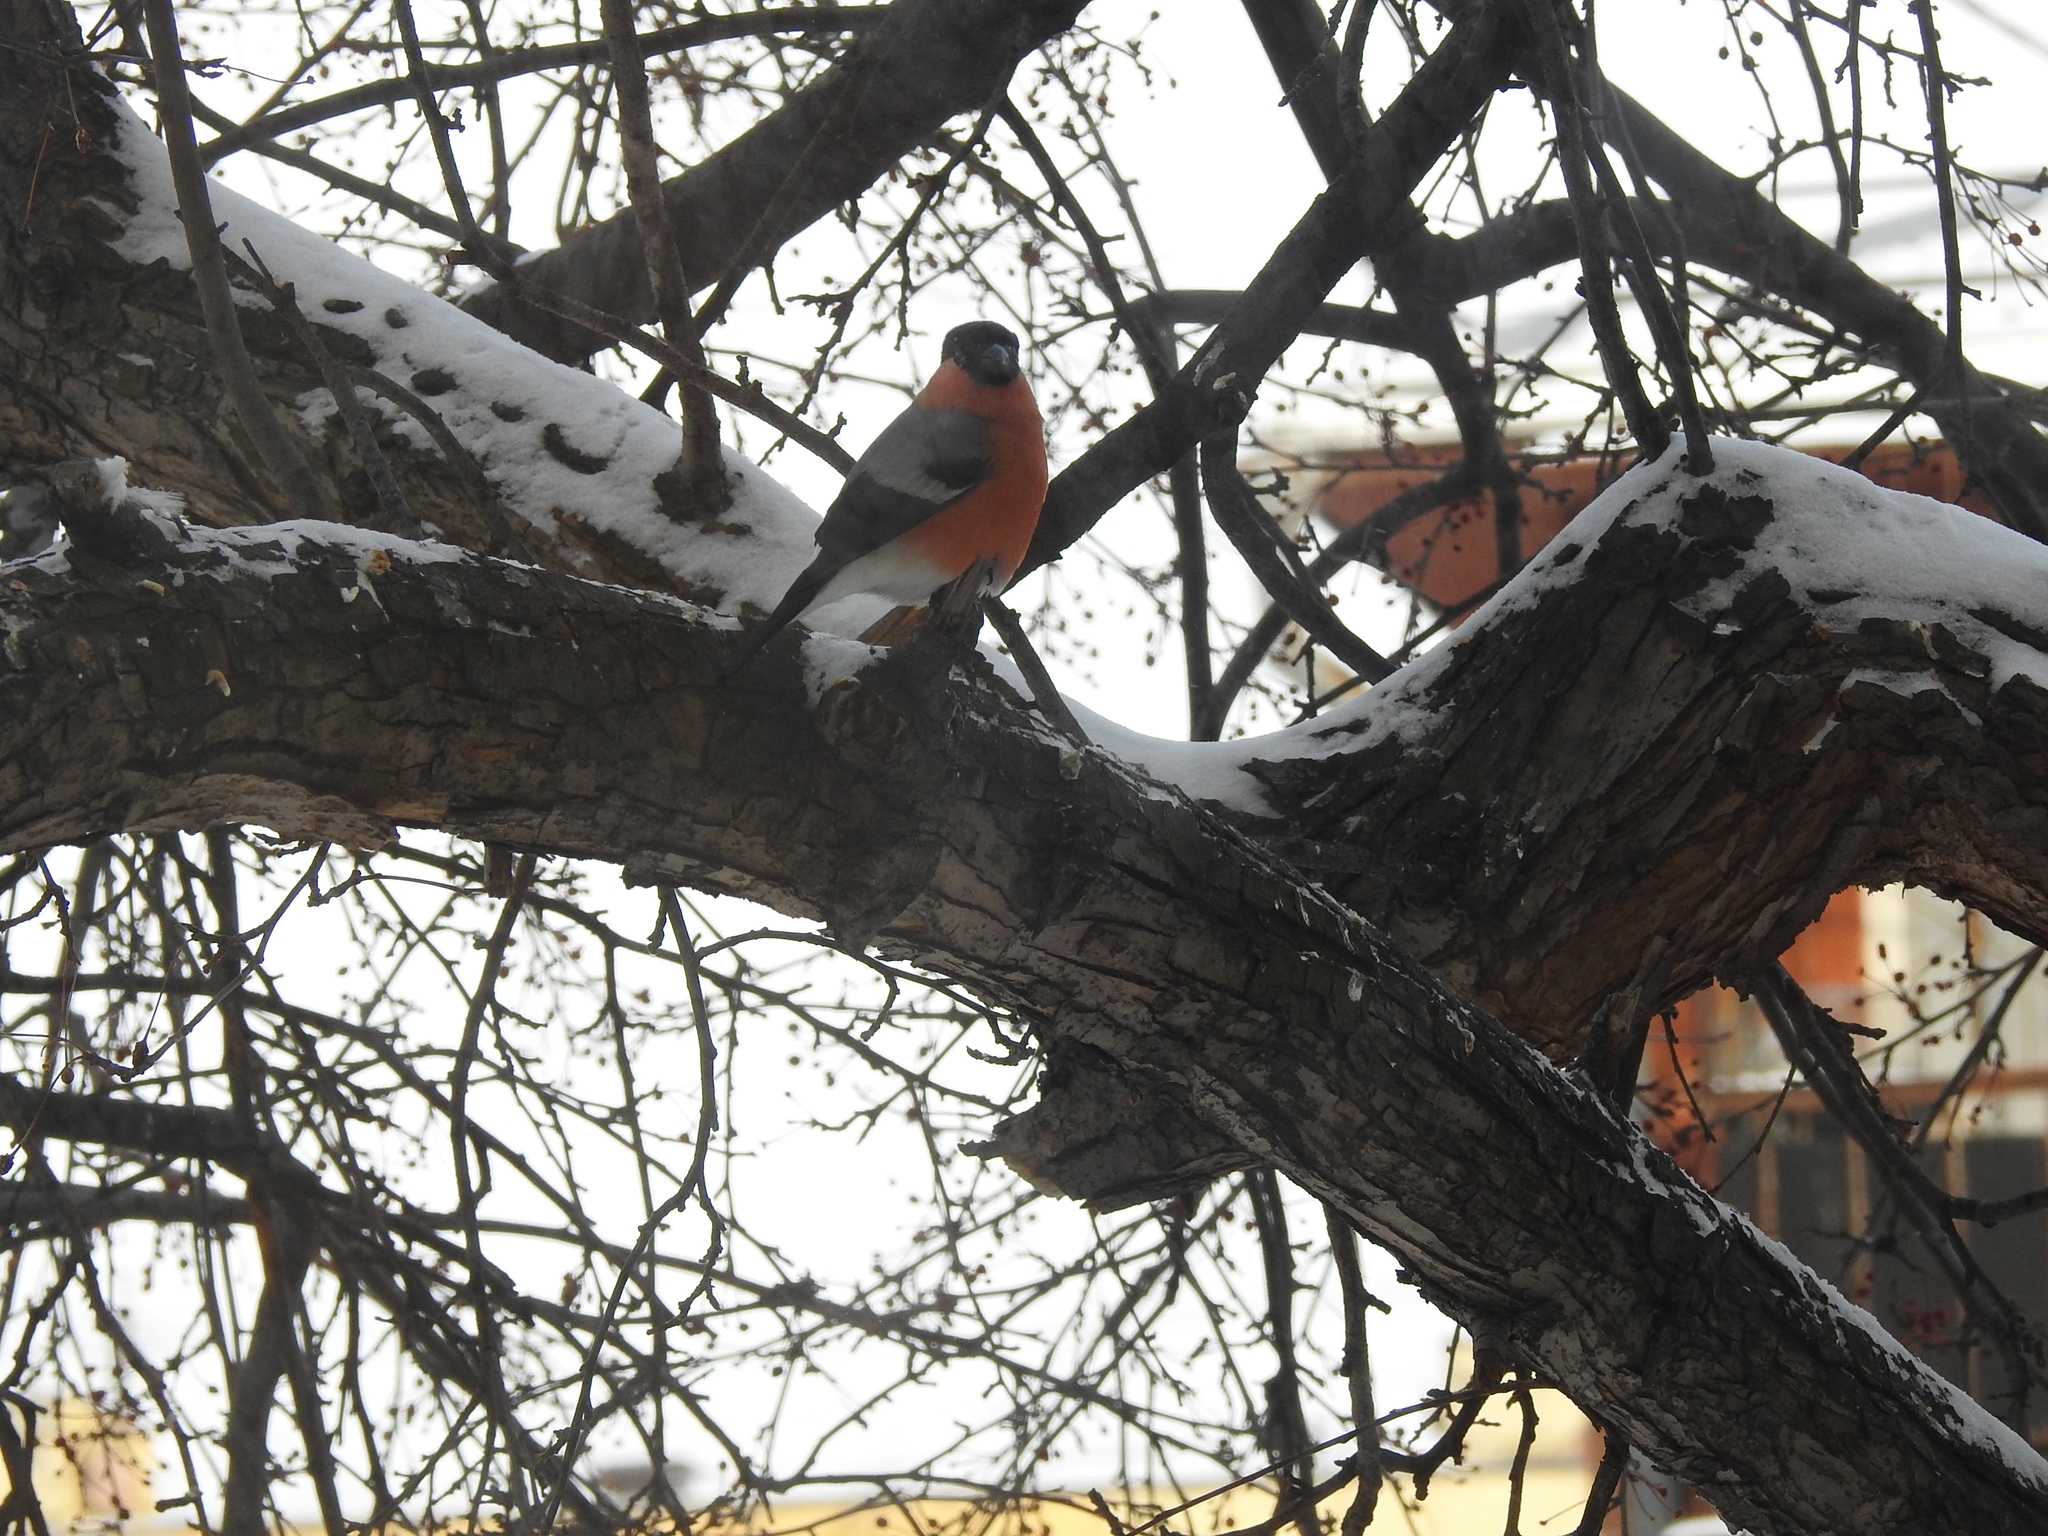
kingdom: Animalia
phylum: Chordata
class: Aves
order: Passeriformes
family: Fringillidae
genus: Pyrrhula
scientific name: Pyrrhula pyrrhula
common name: Eurasian bullfinch
